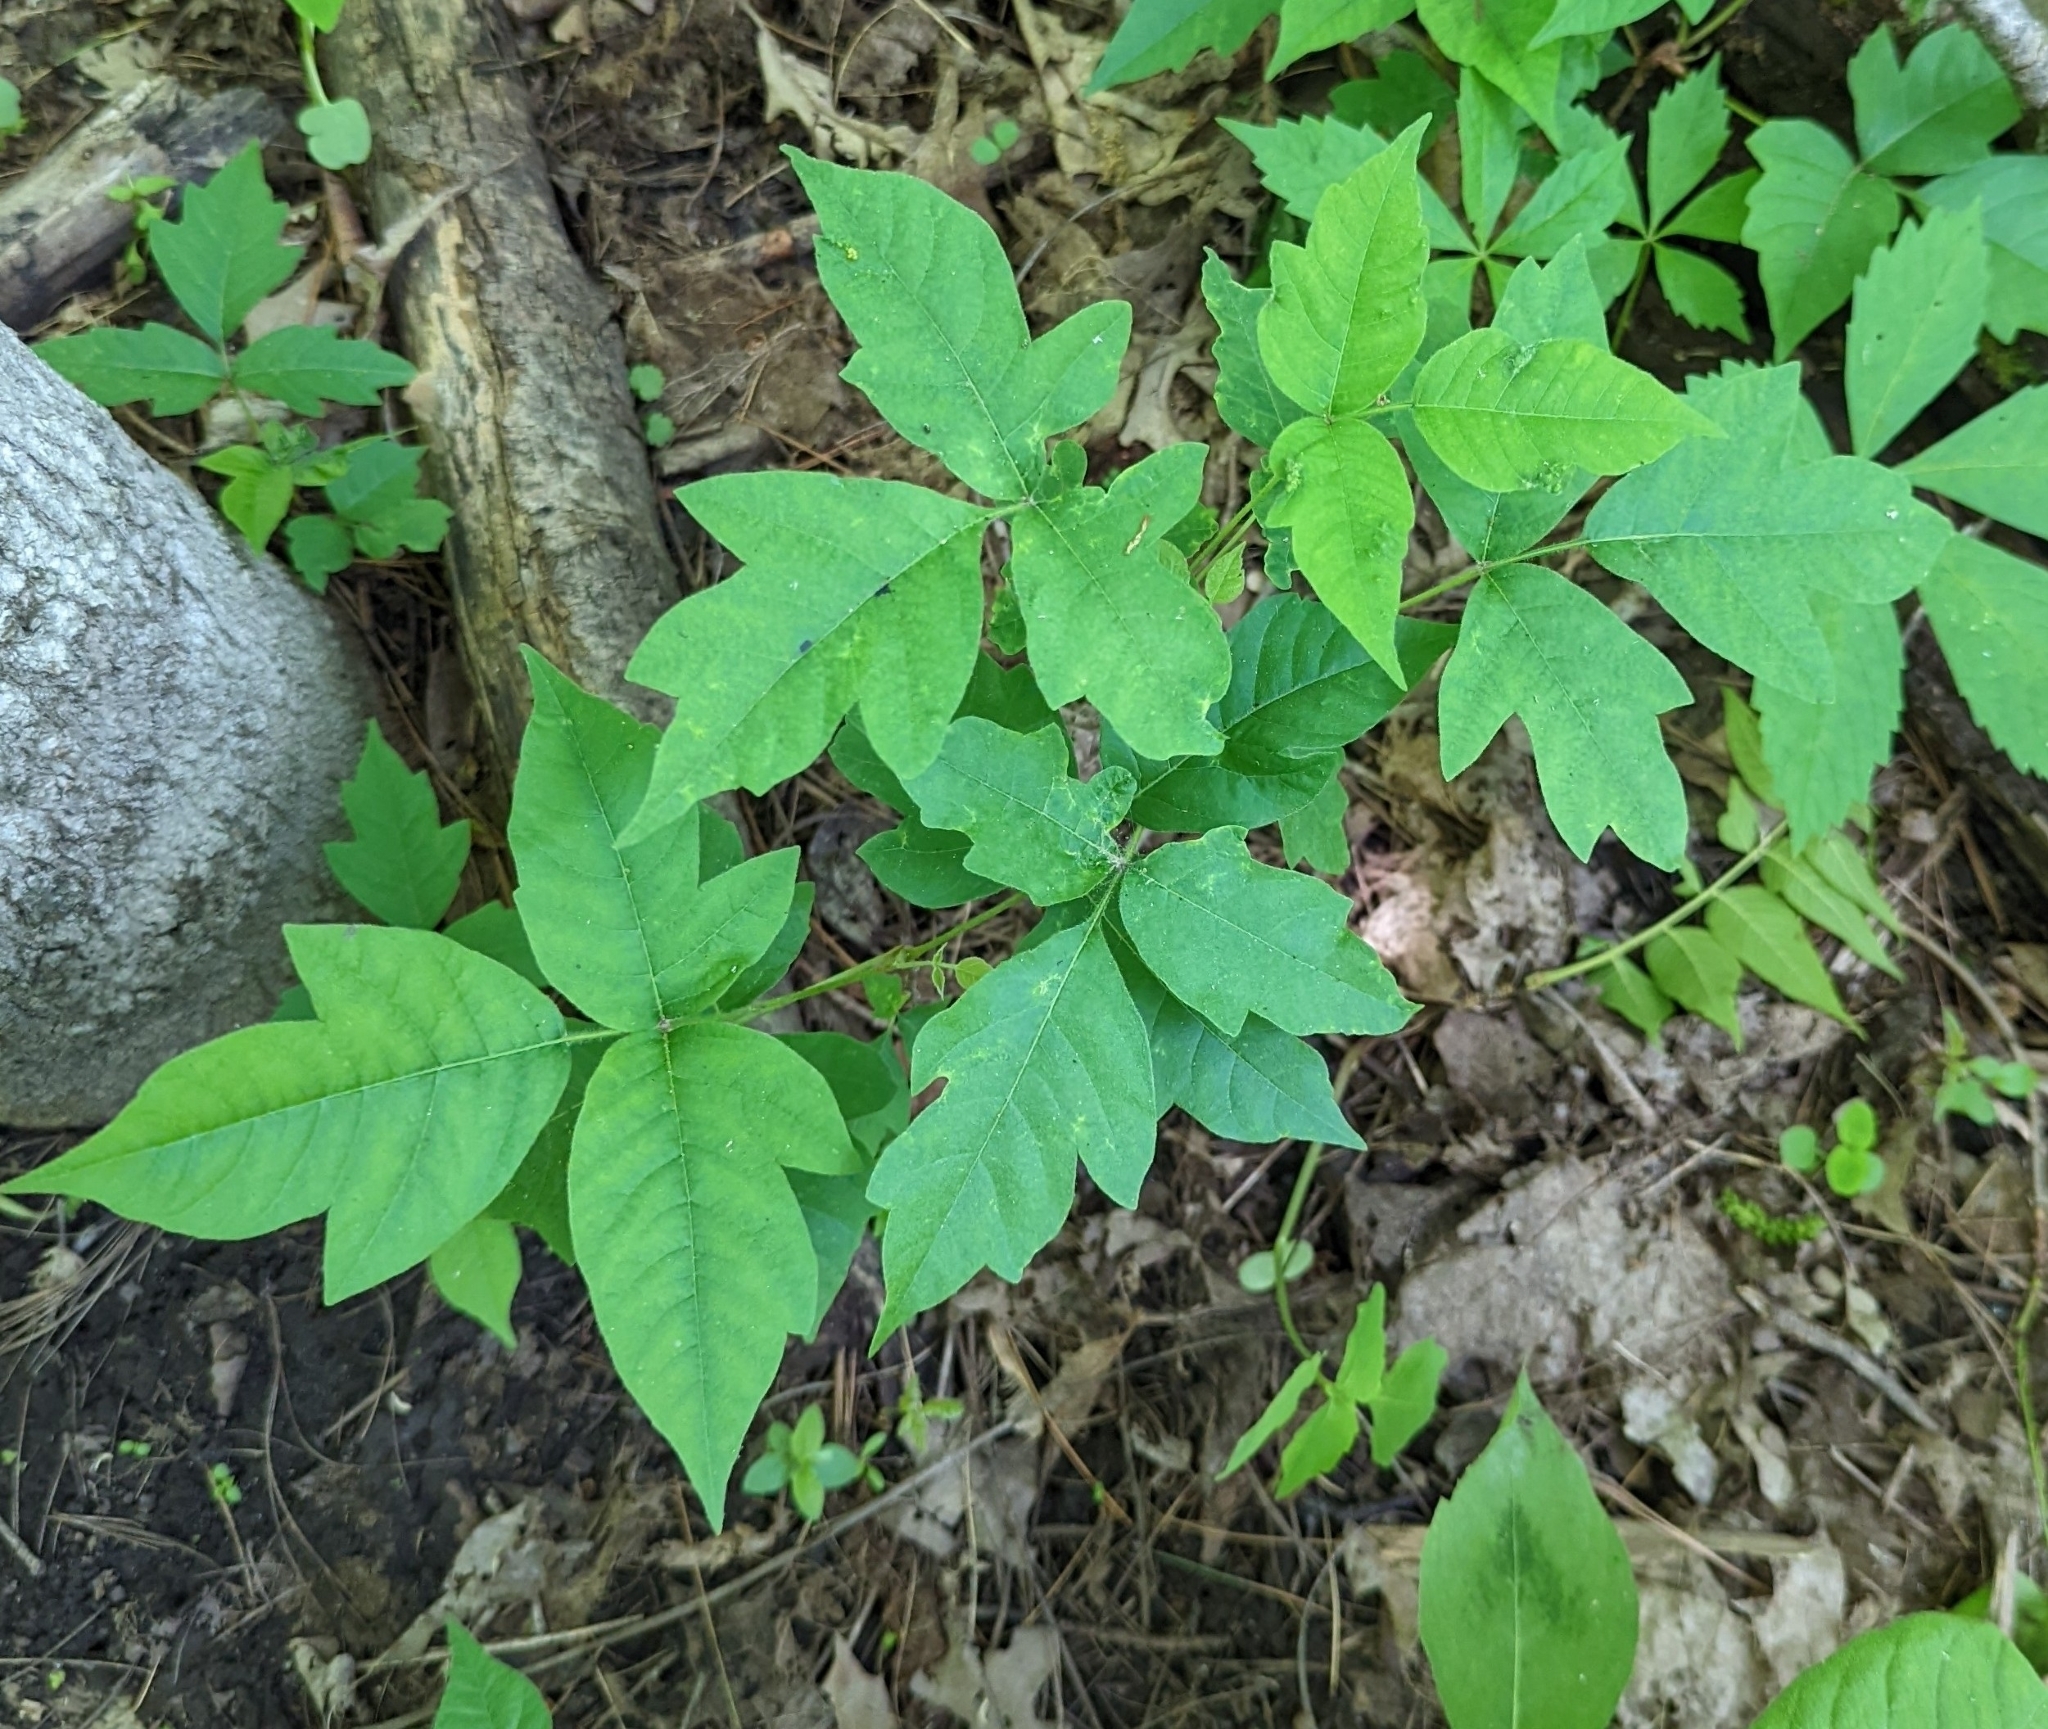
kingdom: Plantae
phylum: Tracheophyta
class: Magnoliopsida
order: Sapindales
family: Anacardiaceae
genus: Toxicodendron
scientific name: Toxicodendron radicans
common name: Poison ivy
